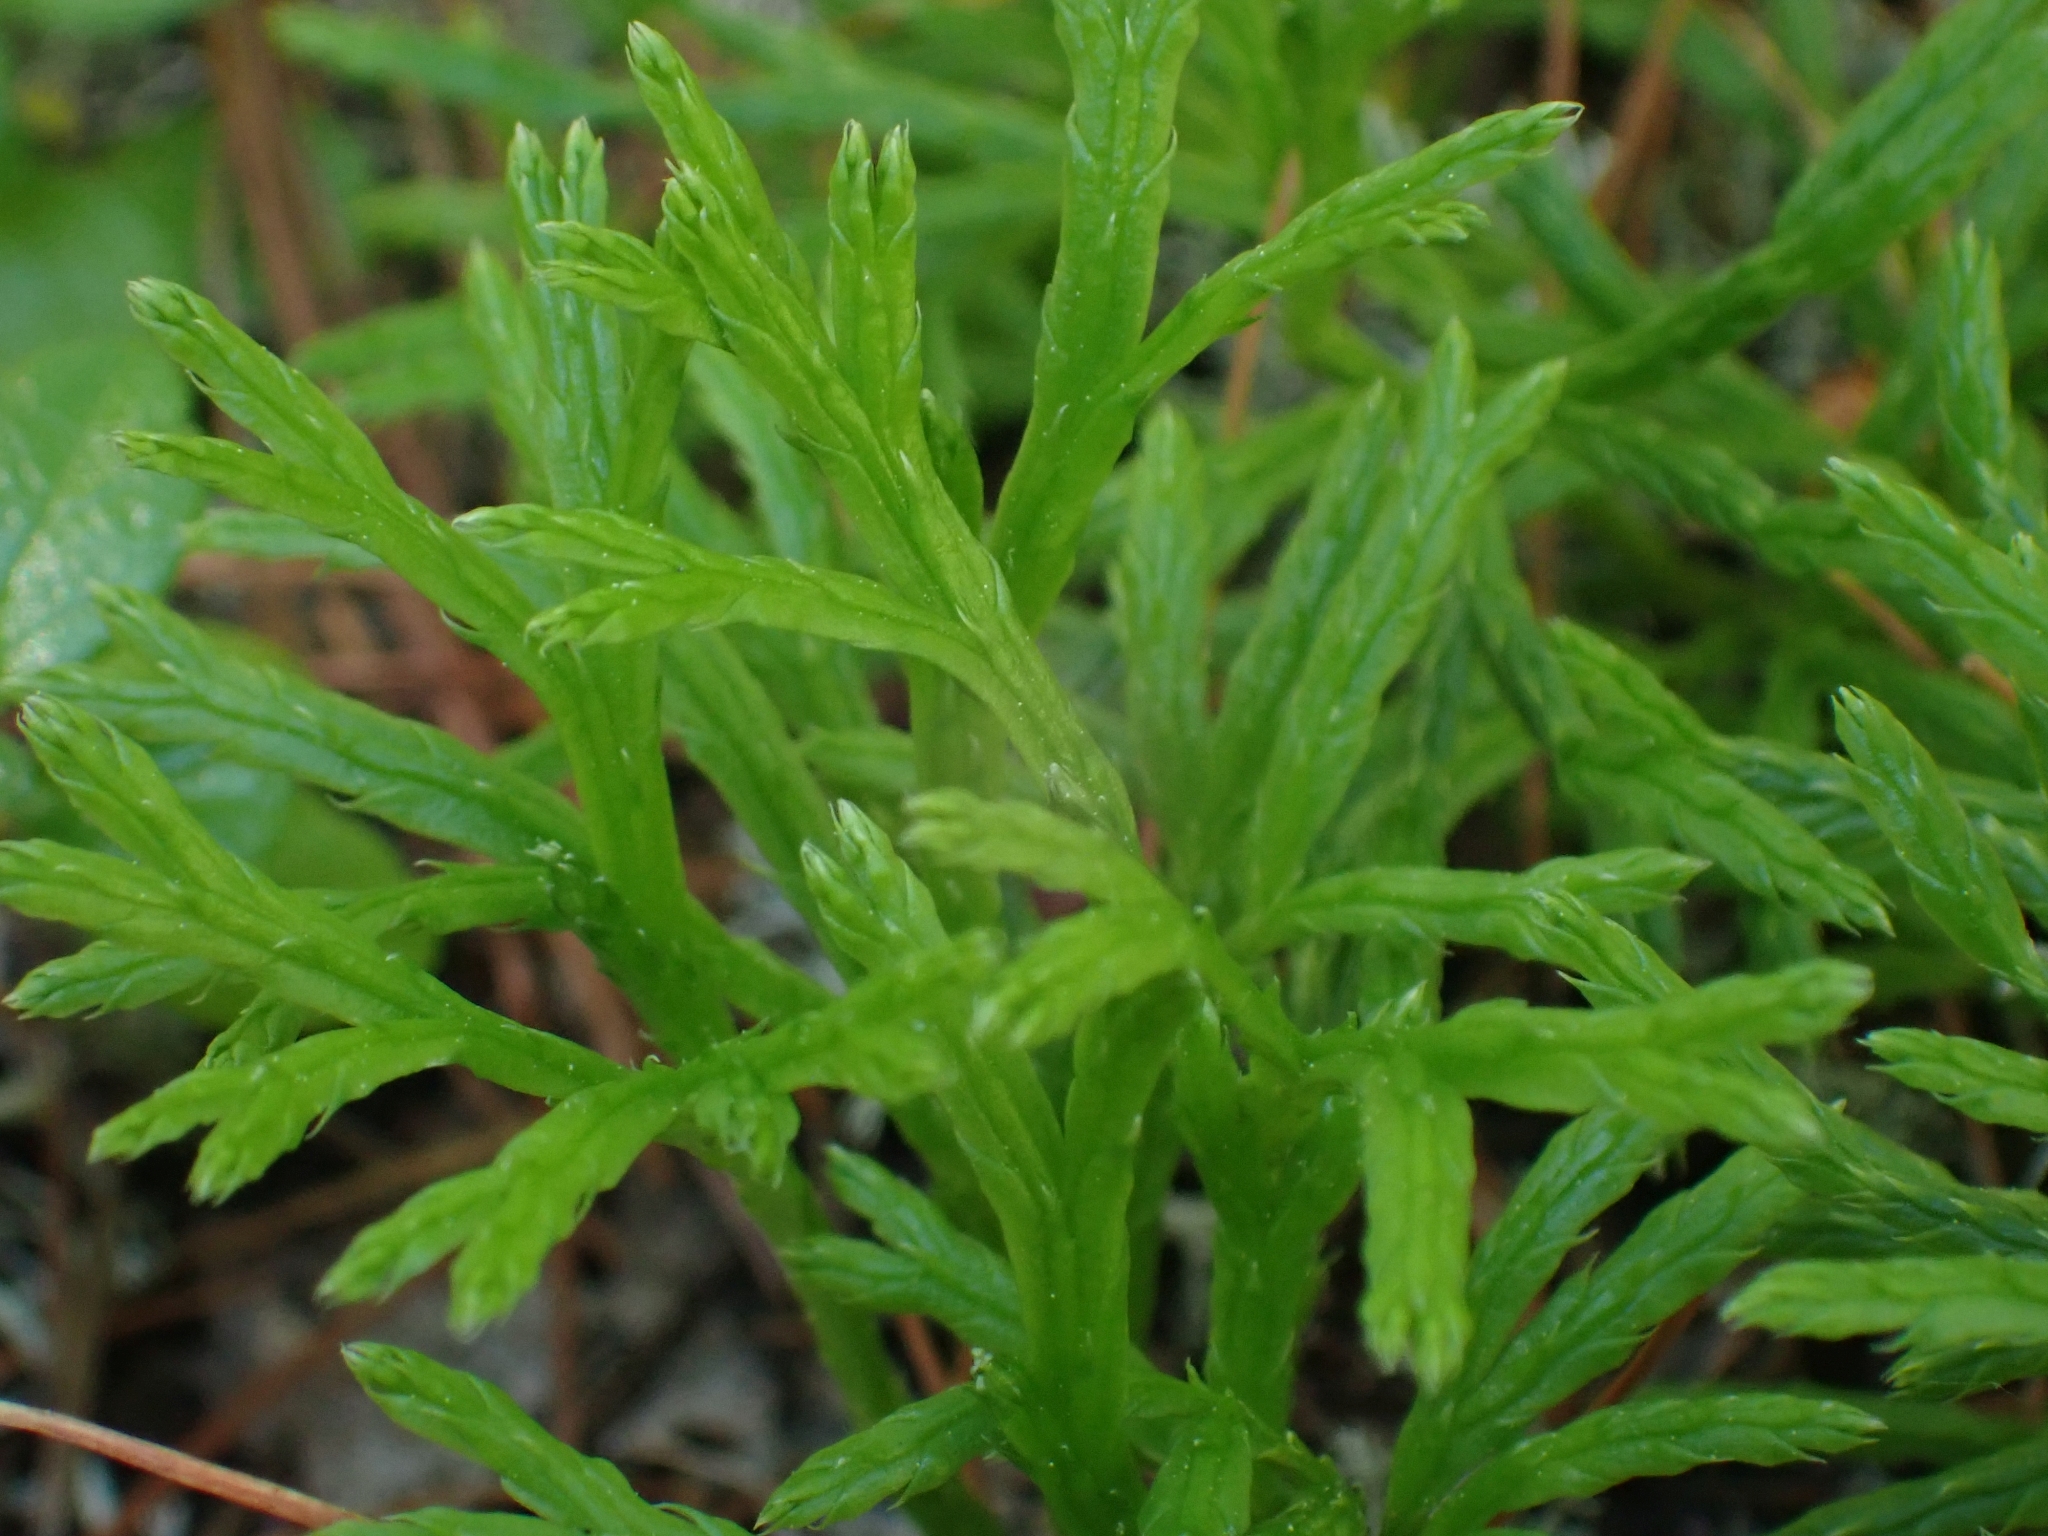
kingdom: Plantae
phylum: Tracheophyta
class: Lycopodiopsida
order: Lycopodiales
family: Lycopodiaceae
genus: Diphasiastrum
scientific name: Diphasiastrum complanatum
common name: Northern running-pine
